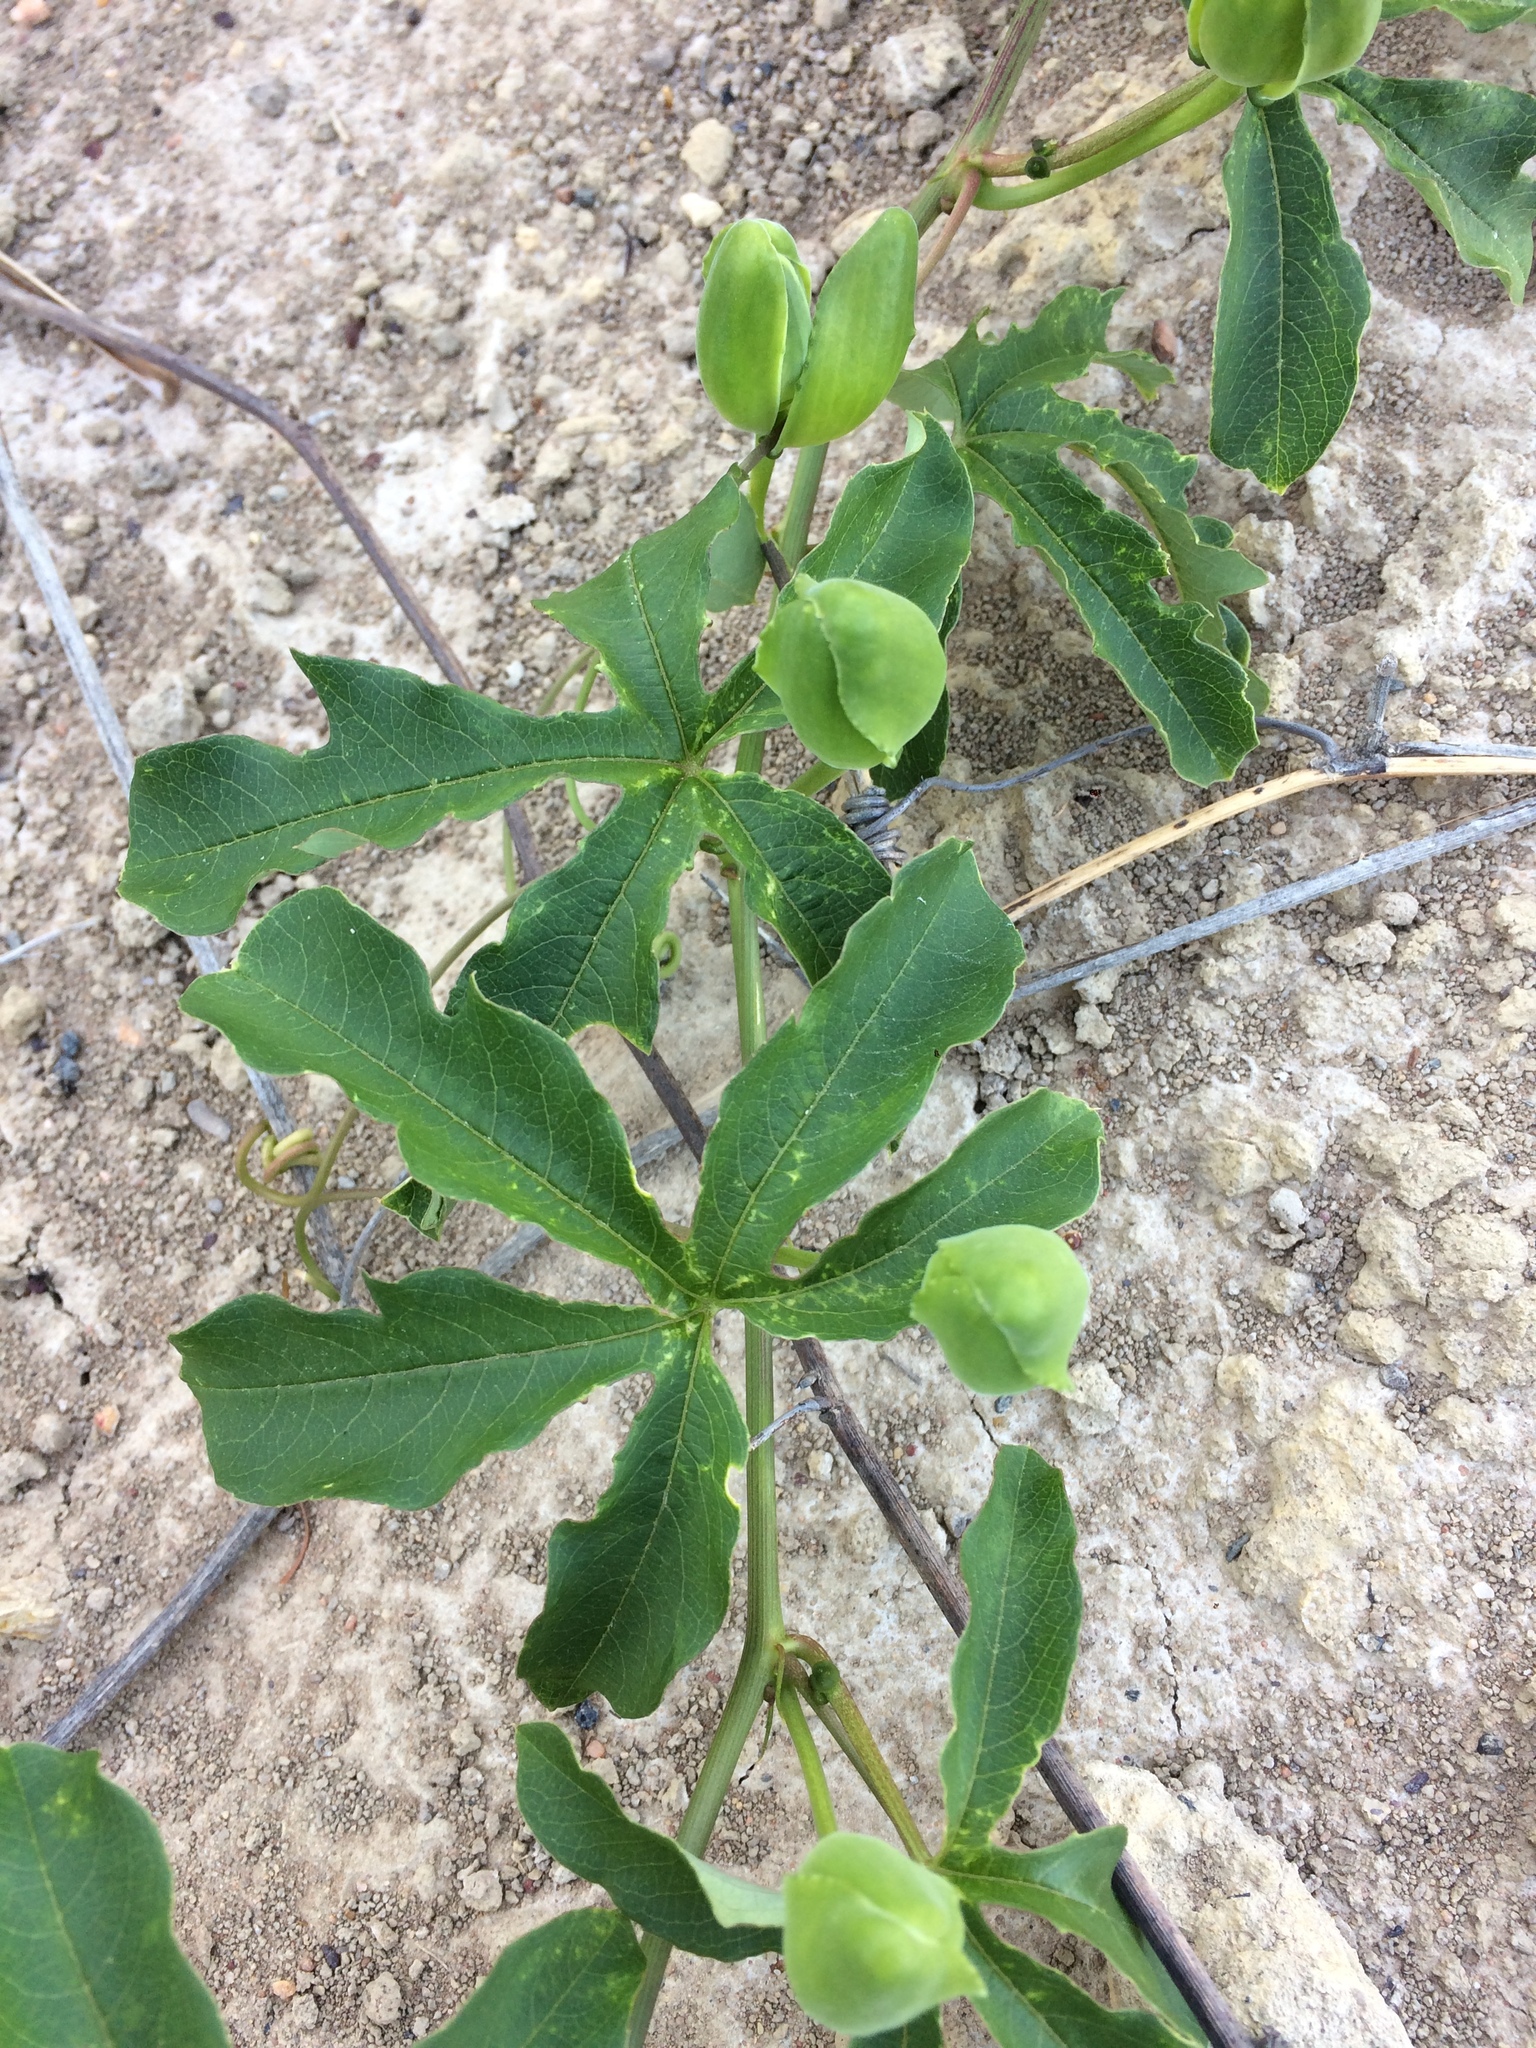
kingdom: Plantae
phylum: Tracheophyta
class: Magnoliopsida
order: Malpighiales
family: Passifloraceae
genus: Passiflora
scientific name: Passiflora cincinnata
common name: Crato passionvine
